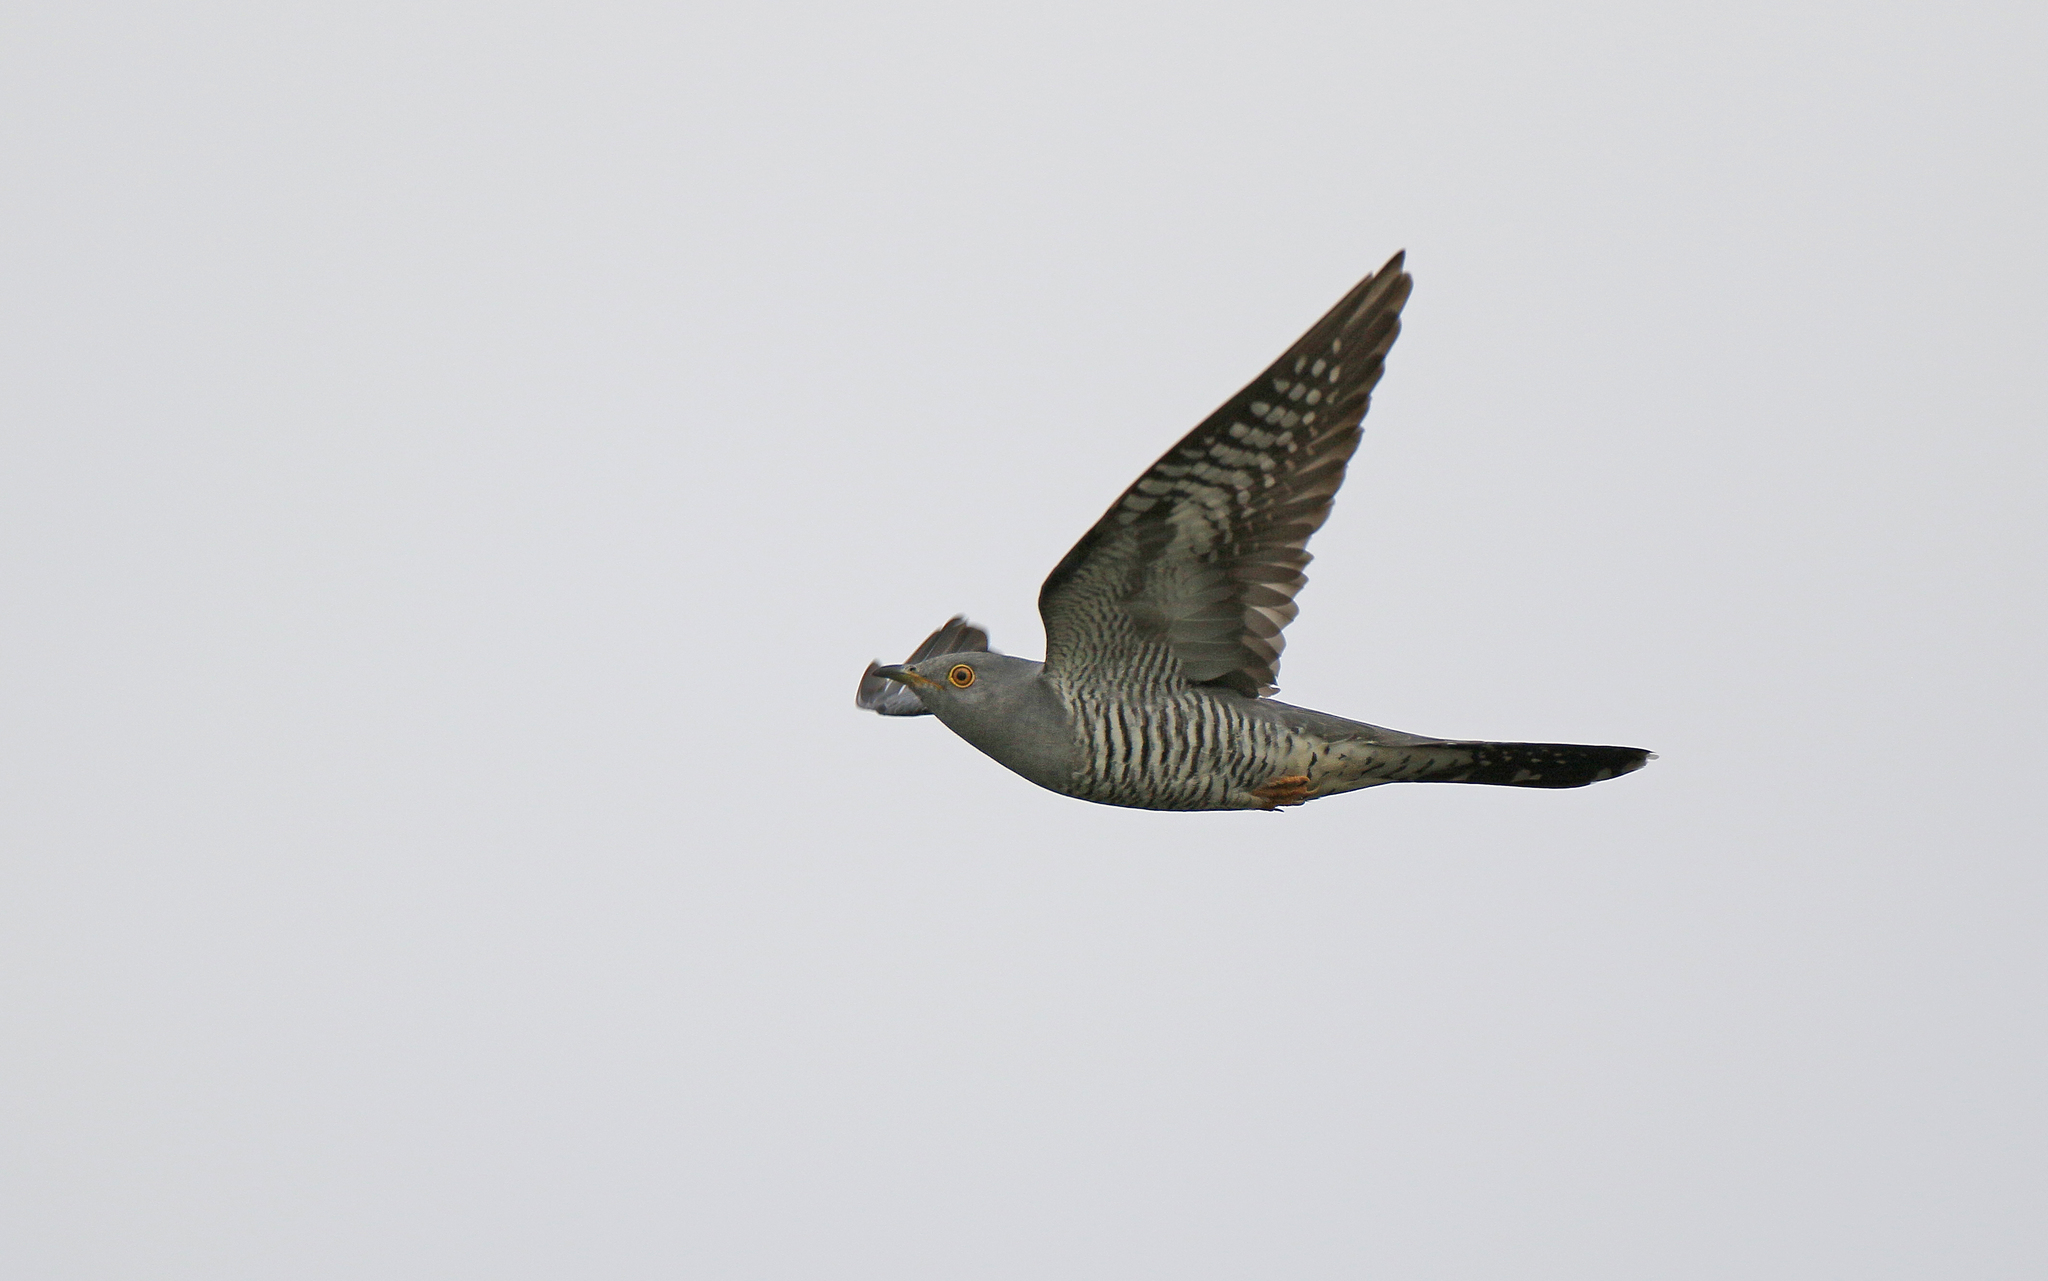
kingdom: Animalia
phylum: Chordata
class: Aves
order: Cuculiformes
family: Cuculidae
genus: Cuculus
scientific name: Cuculus canorus
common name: Common cuckoo
